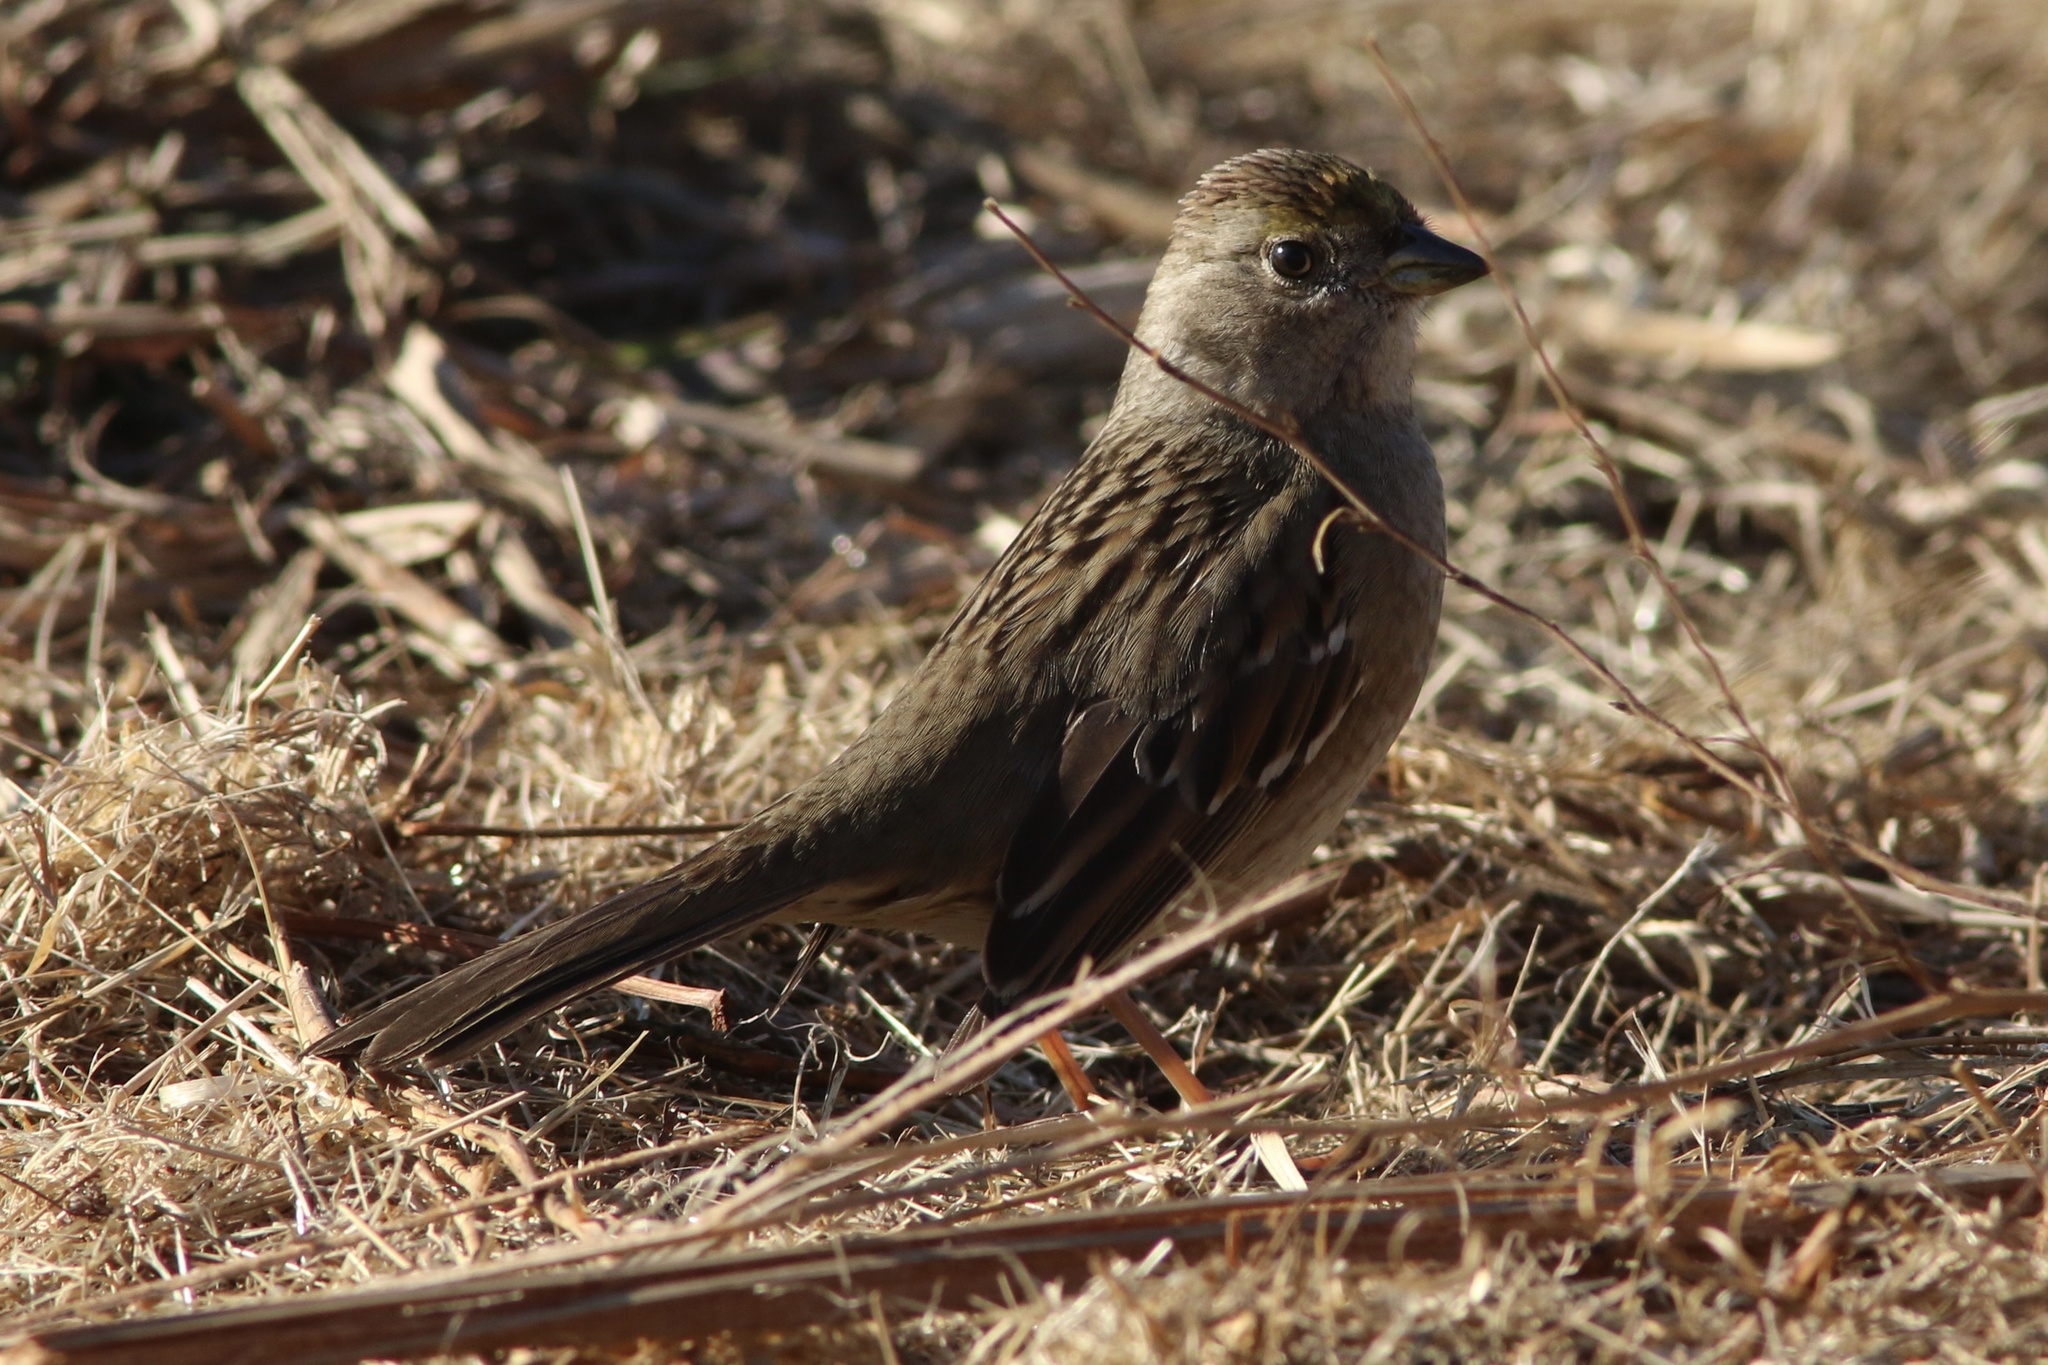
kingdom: Animalia
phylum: Chordata
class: Aves
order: Passeriformes
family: Passerellidae
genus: Zonotrichia
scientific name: Zonotrichia atricapilla
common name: Golden-crowned sparrow
